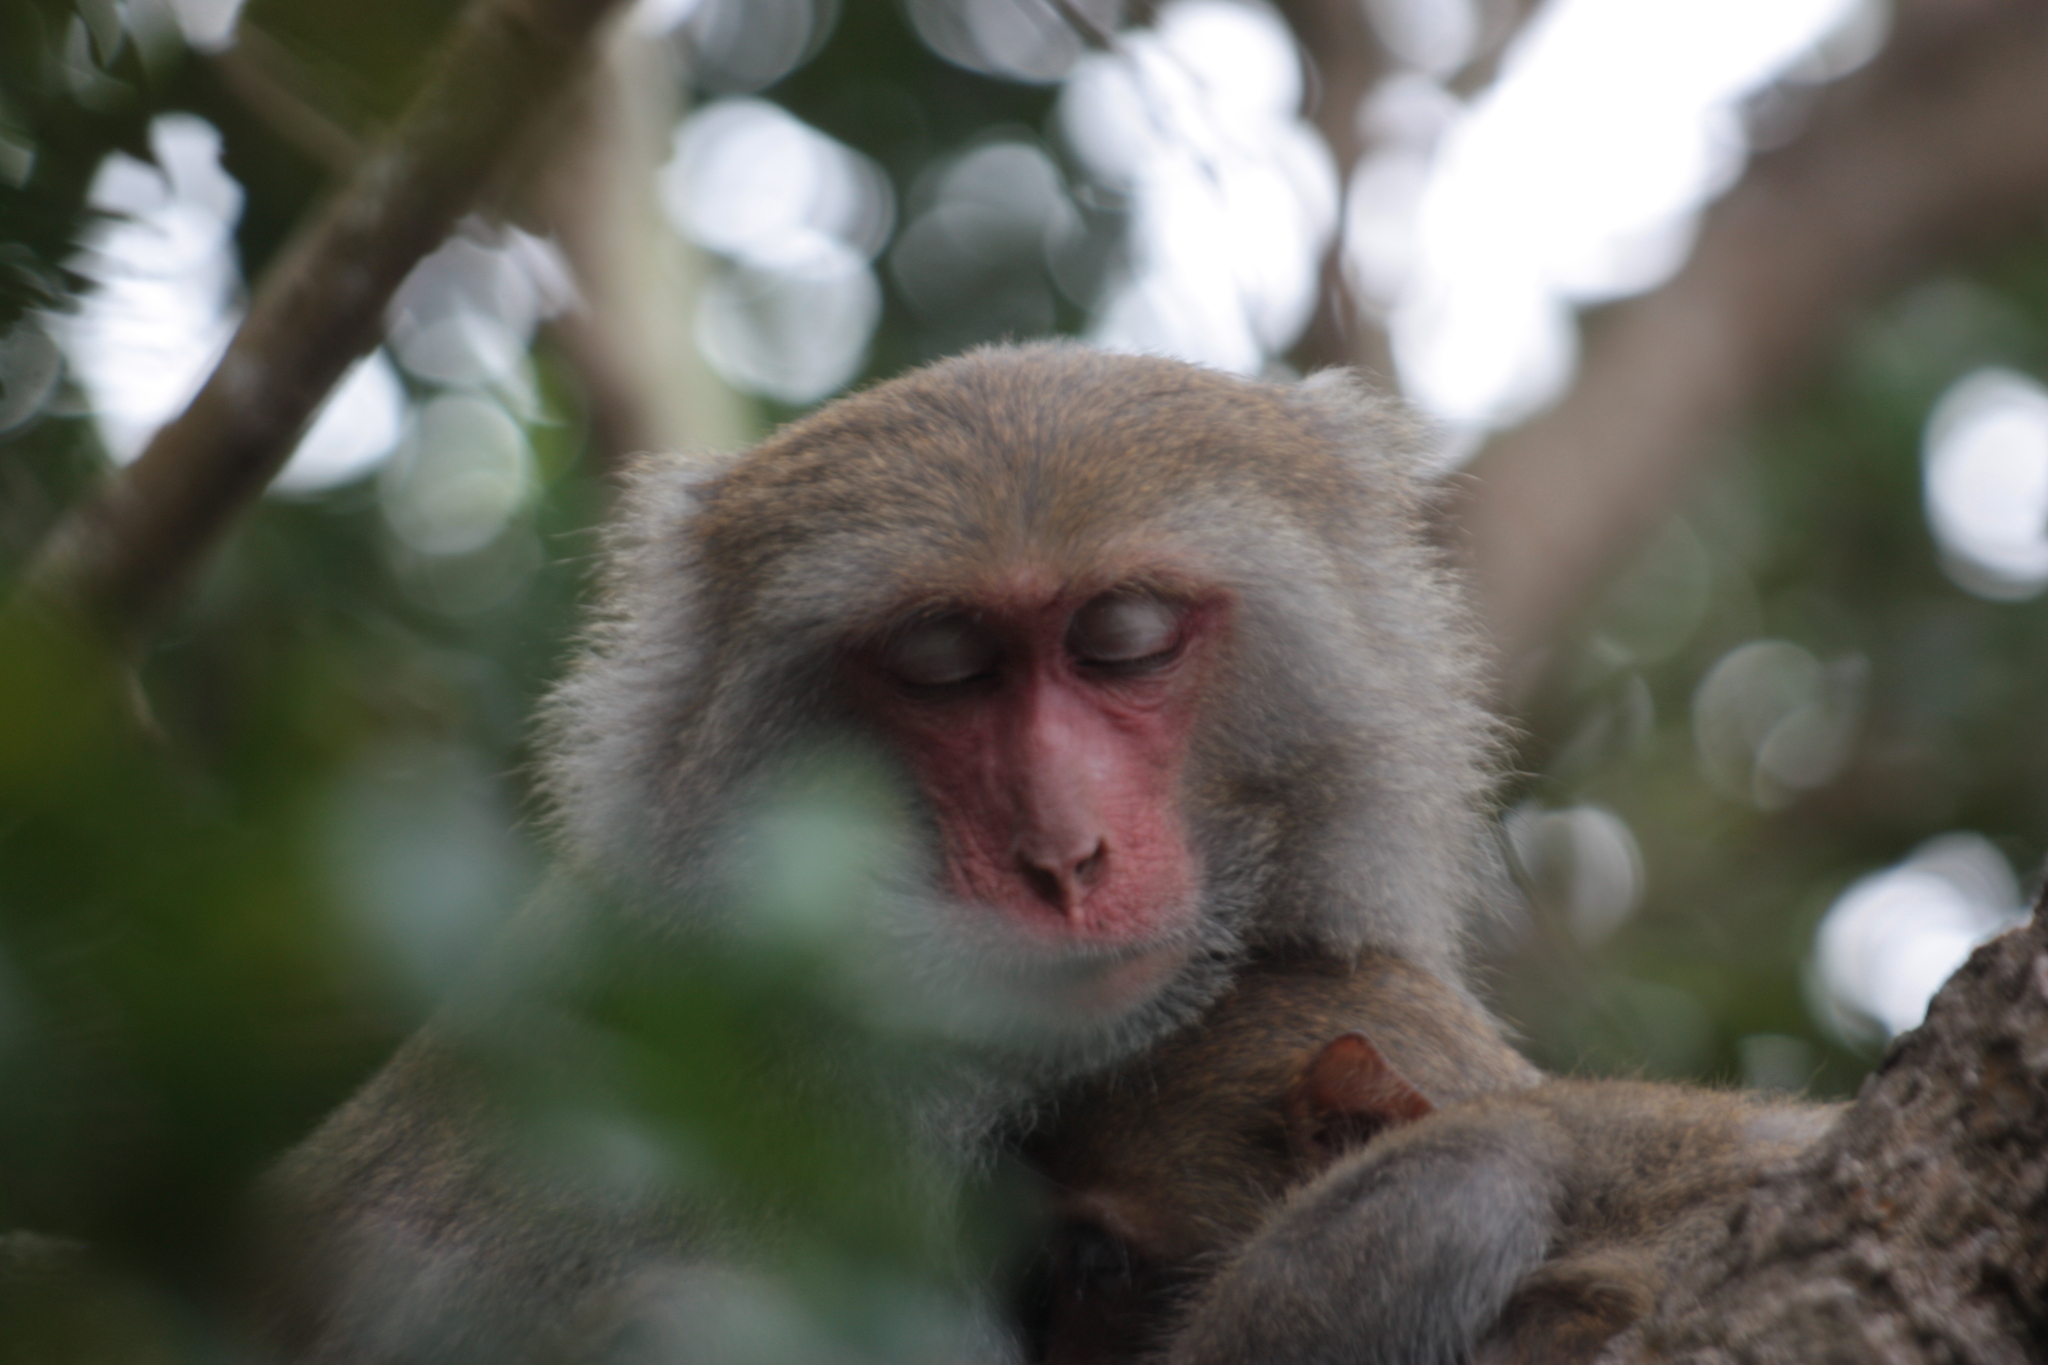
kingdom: Animalia
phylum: Chordata
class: Mammalia
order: Primates
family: Cercopithecidae
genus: Macaca
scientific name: Macaca cyclopis
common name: Formosan rock macaque
